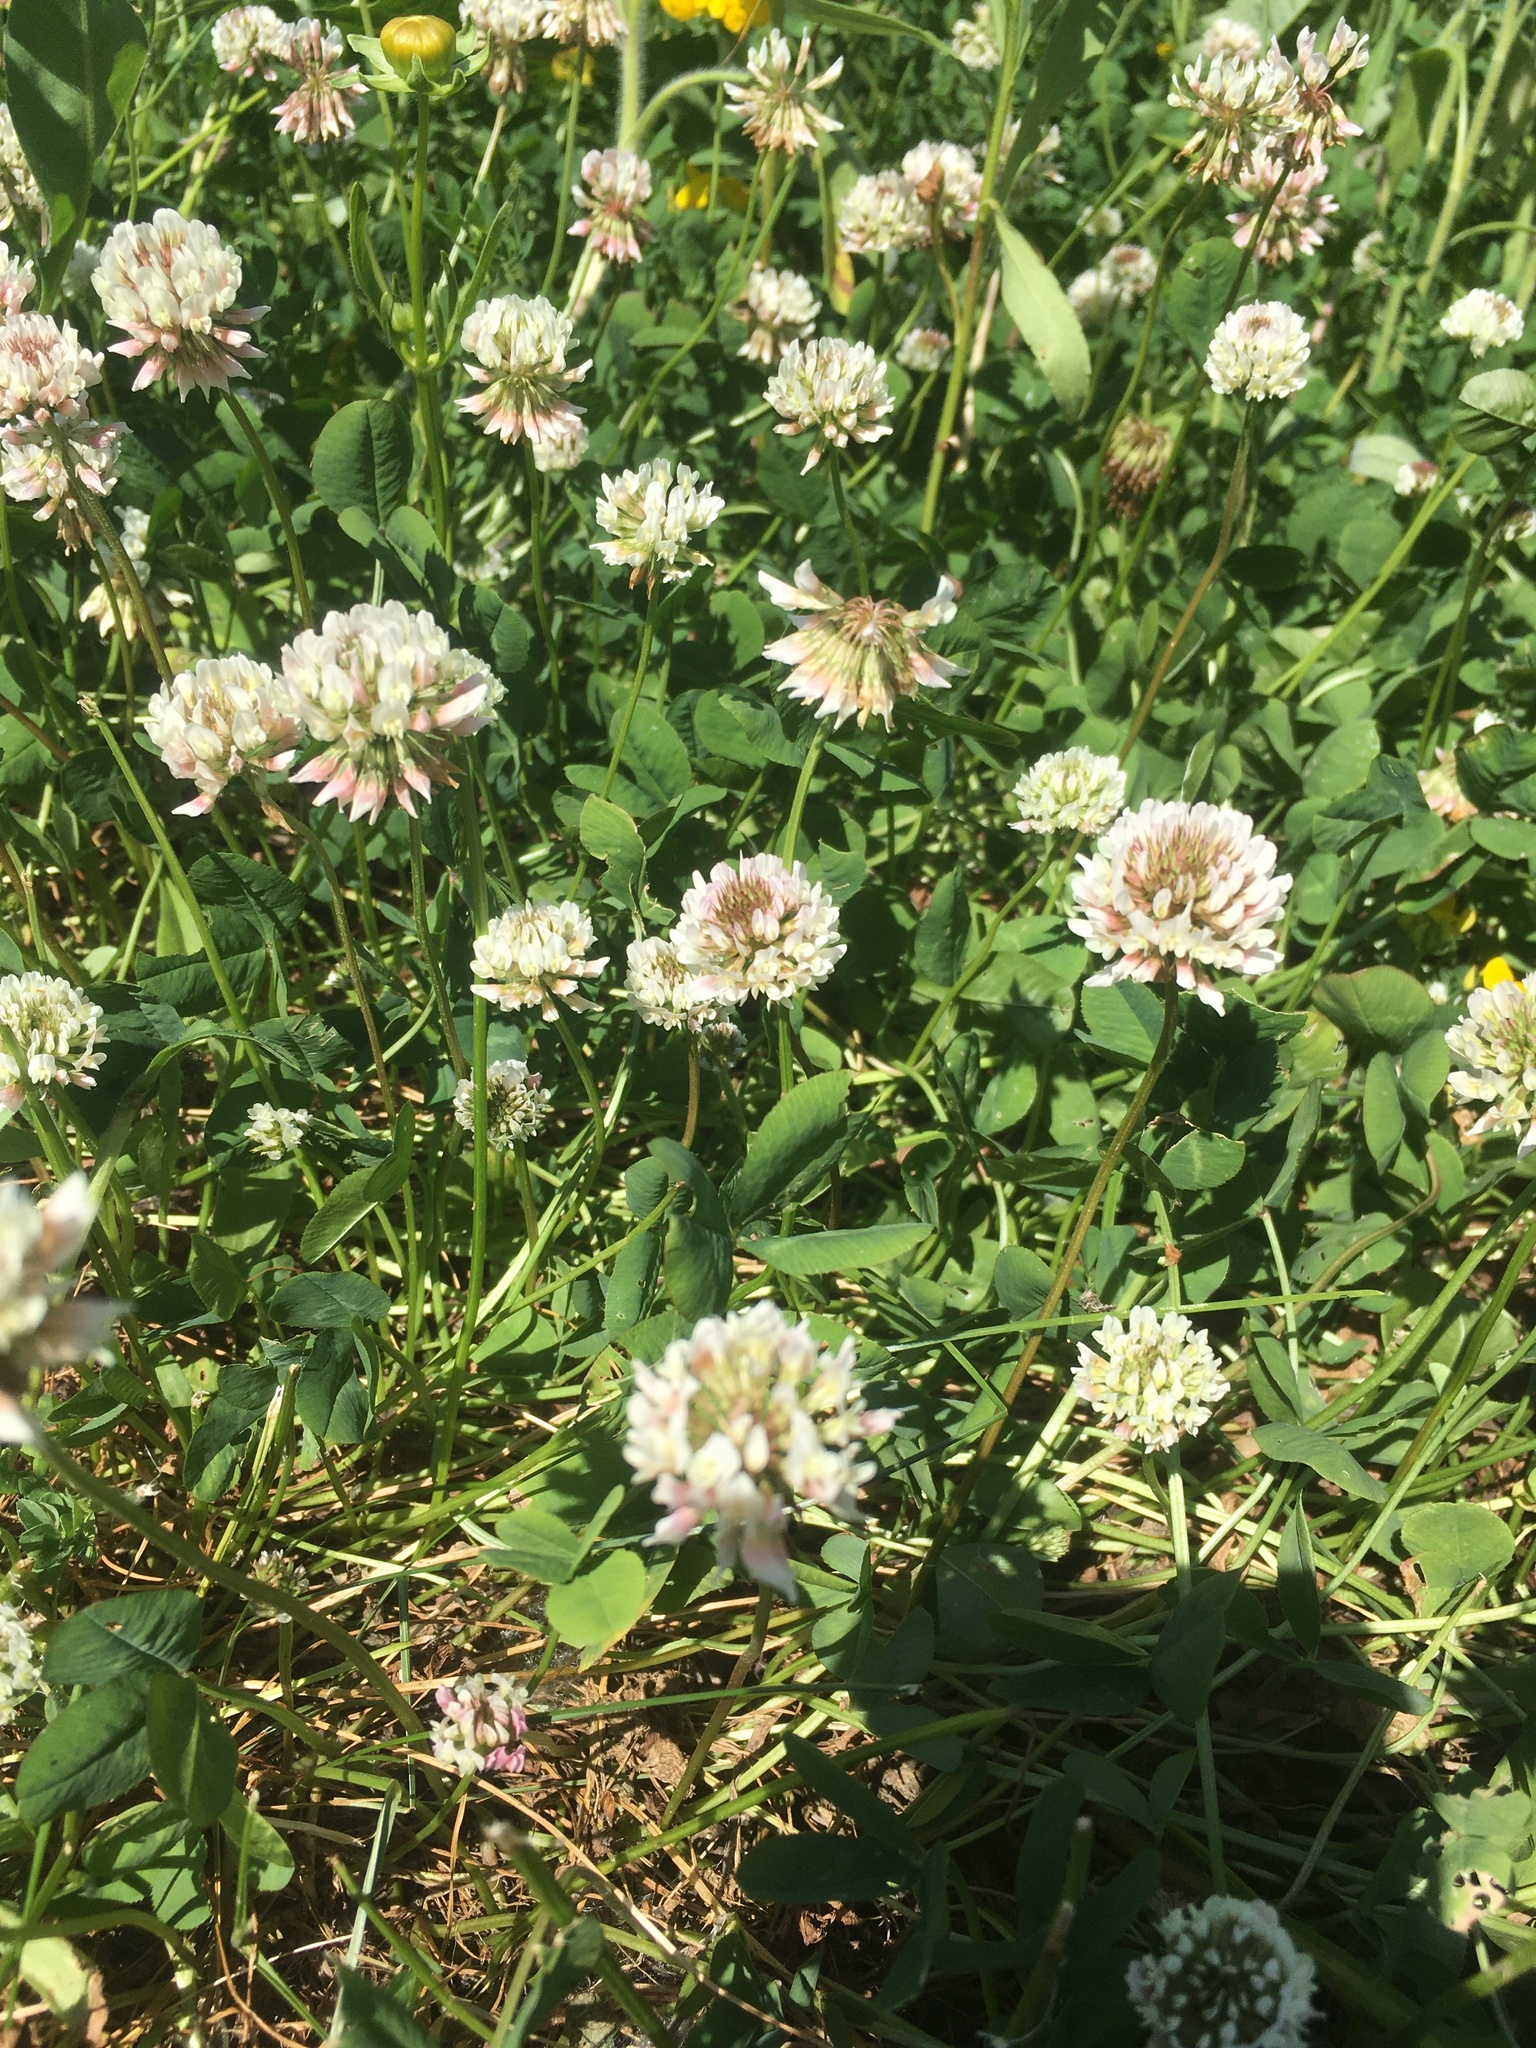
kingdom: Plantae
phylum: Tracheophyta
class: Magnoliopsida
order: Fabales
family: Fabaceae
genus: Trifolium
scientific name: Trifolium repens
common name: White clover
